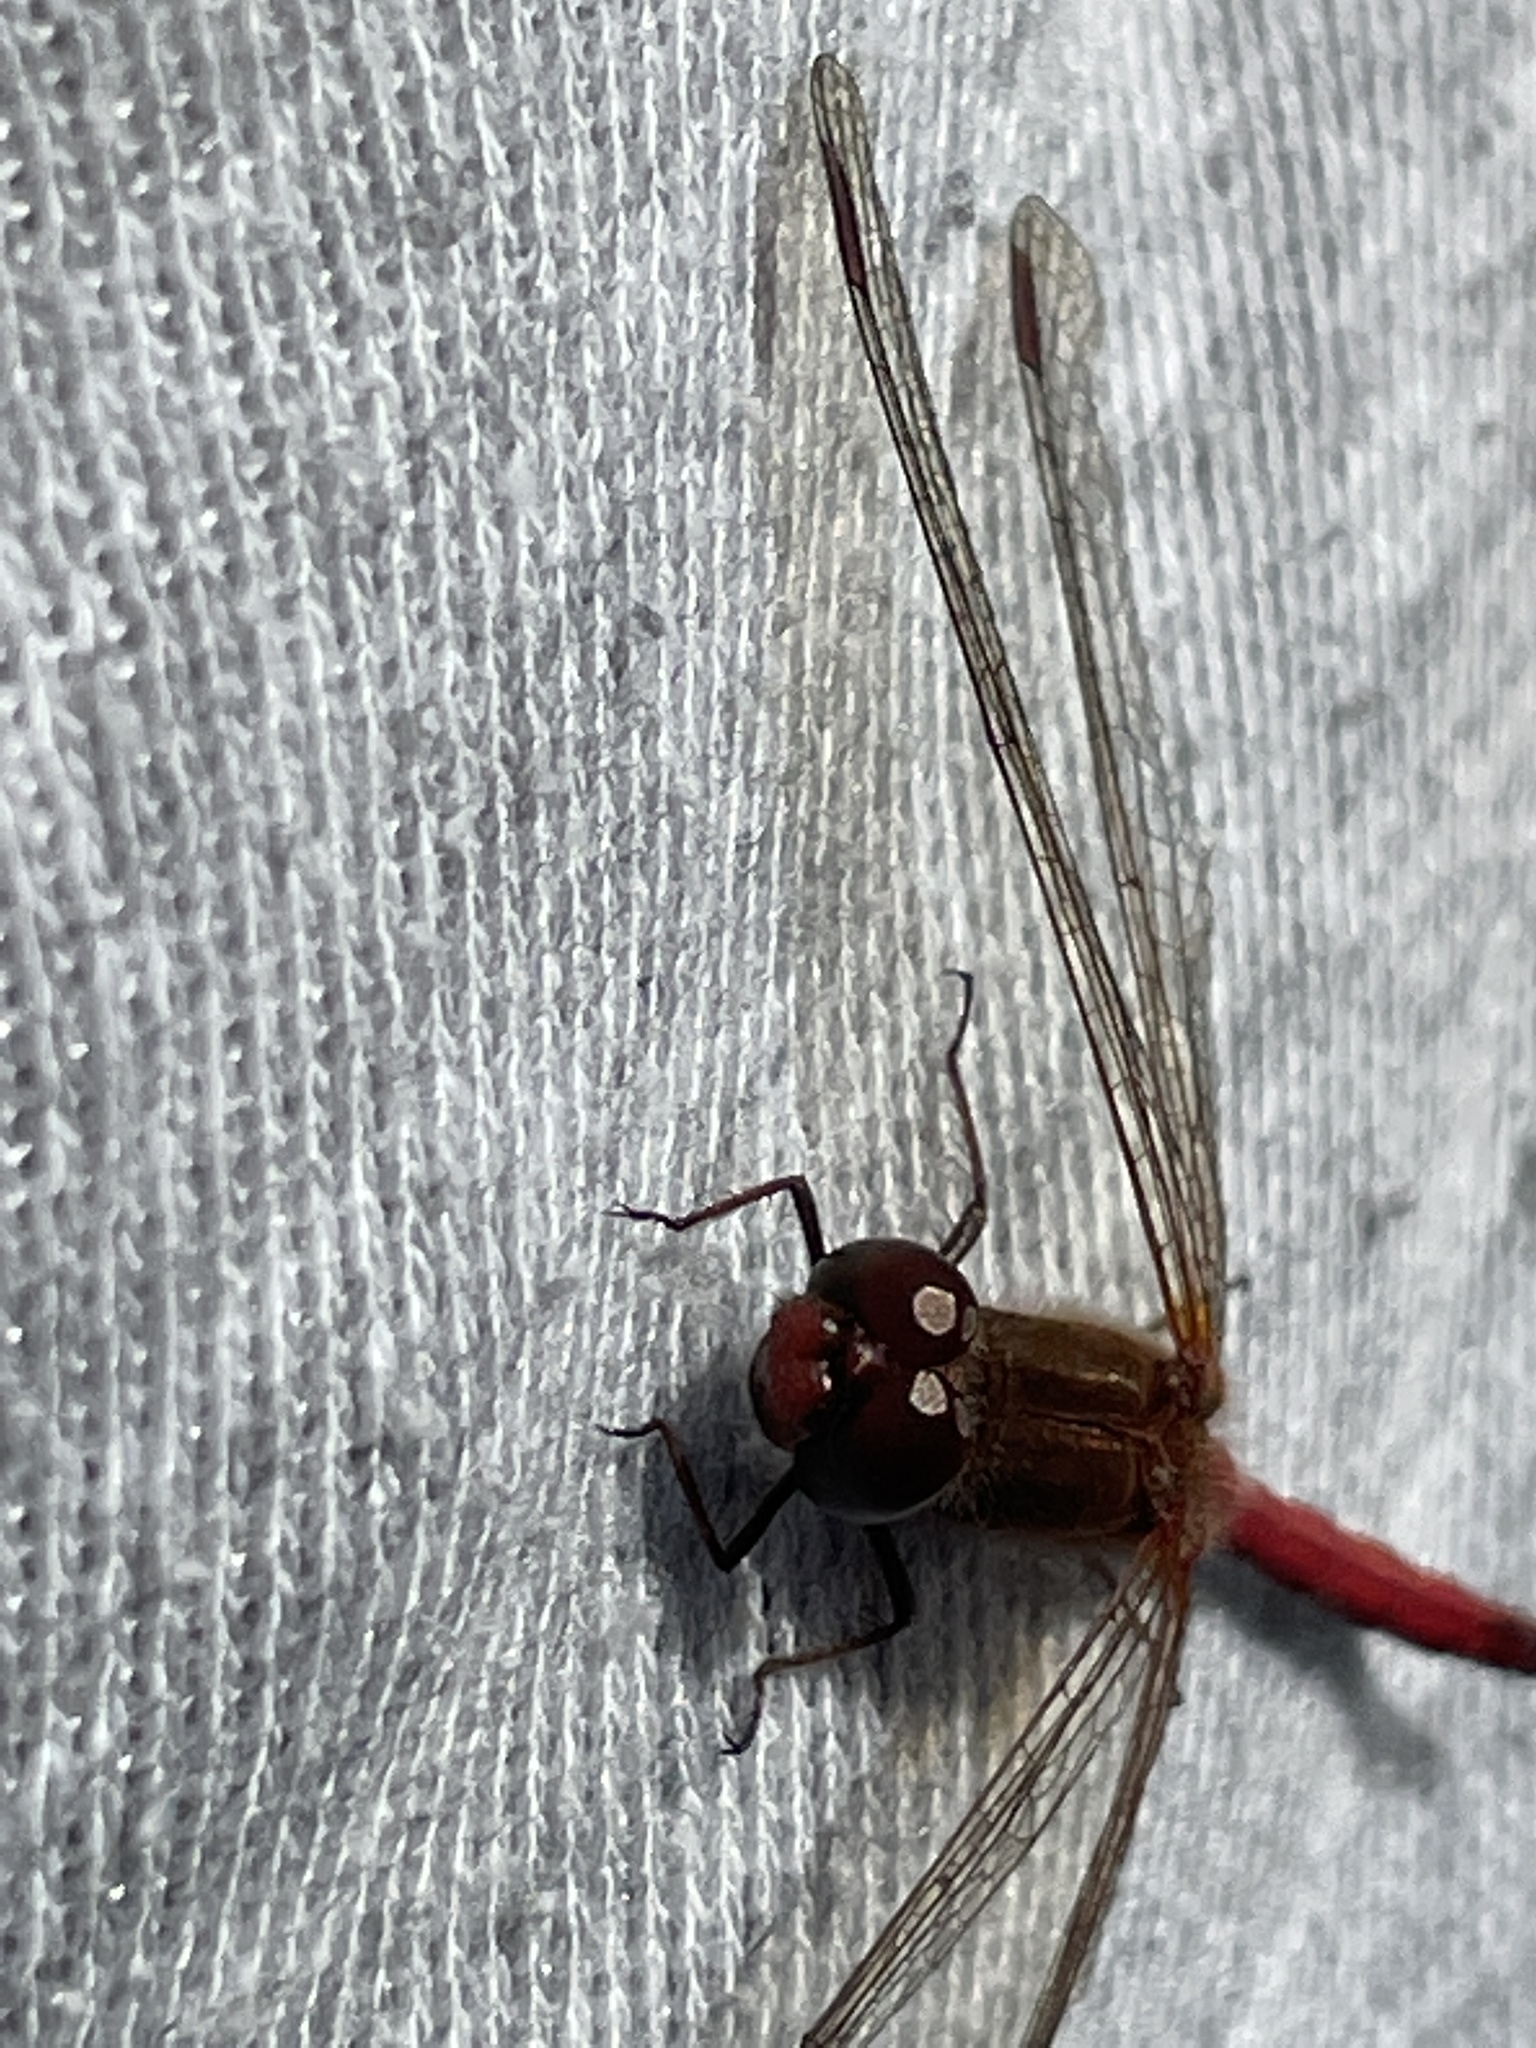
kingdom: Animalia
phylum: Arthropoda
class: Insecta
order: Odonata
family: Libellulidae
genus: Sympetrum
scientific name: Sympetrum vicinum
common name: Autumn meadowhawk
